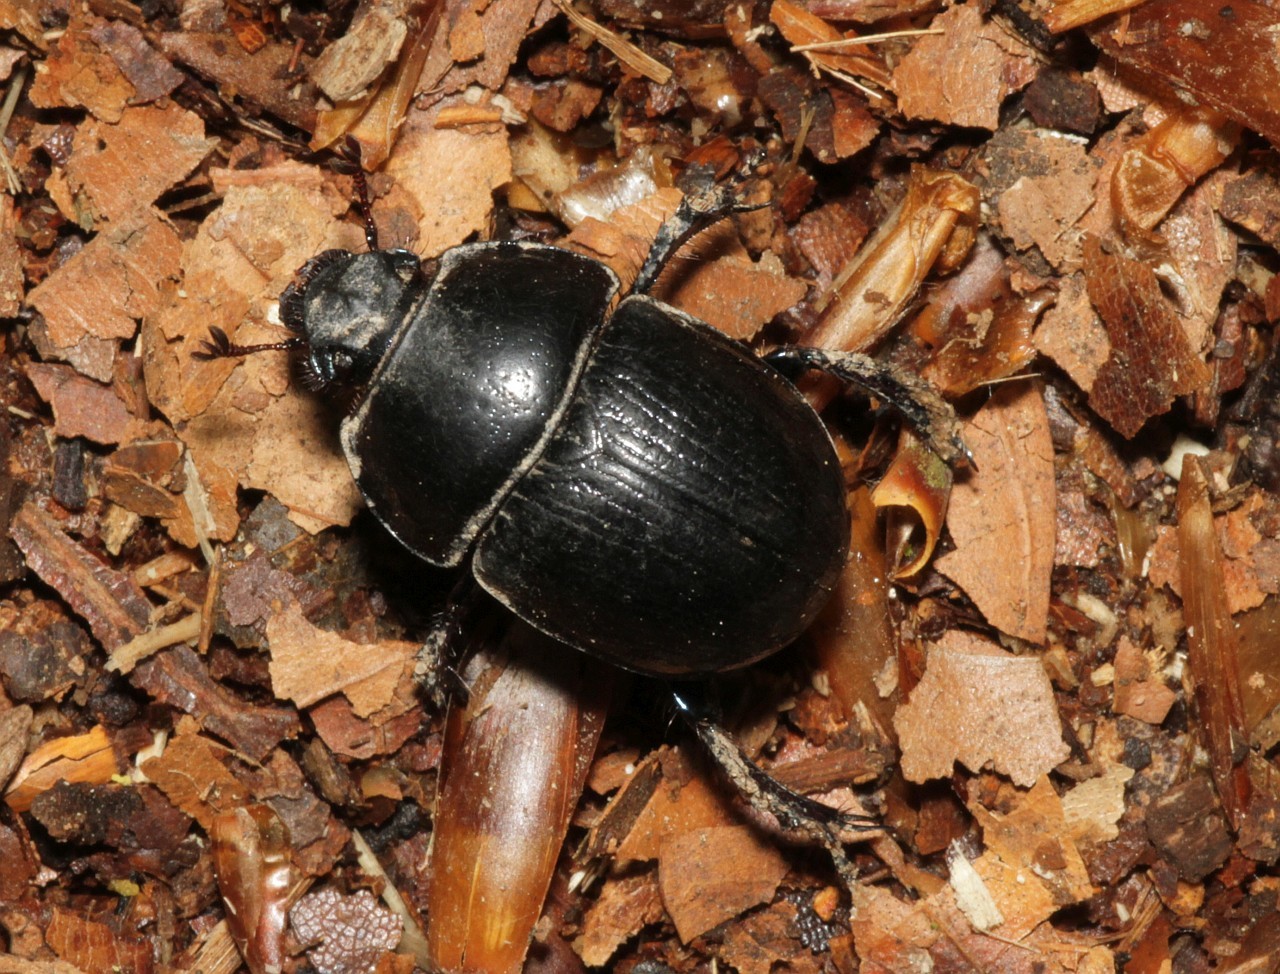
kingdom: Animalia
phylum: Arthropoda
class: Insecta
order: Coleoptera
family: Geotrupidae
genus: Anoplotrupes
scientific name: Anoplotrupes stercorosus
